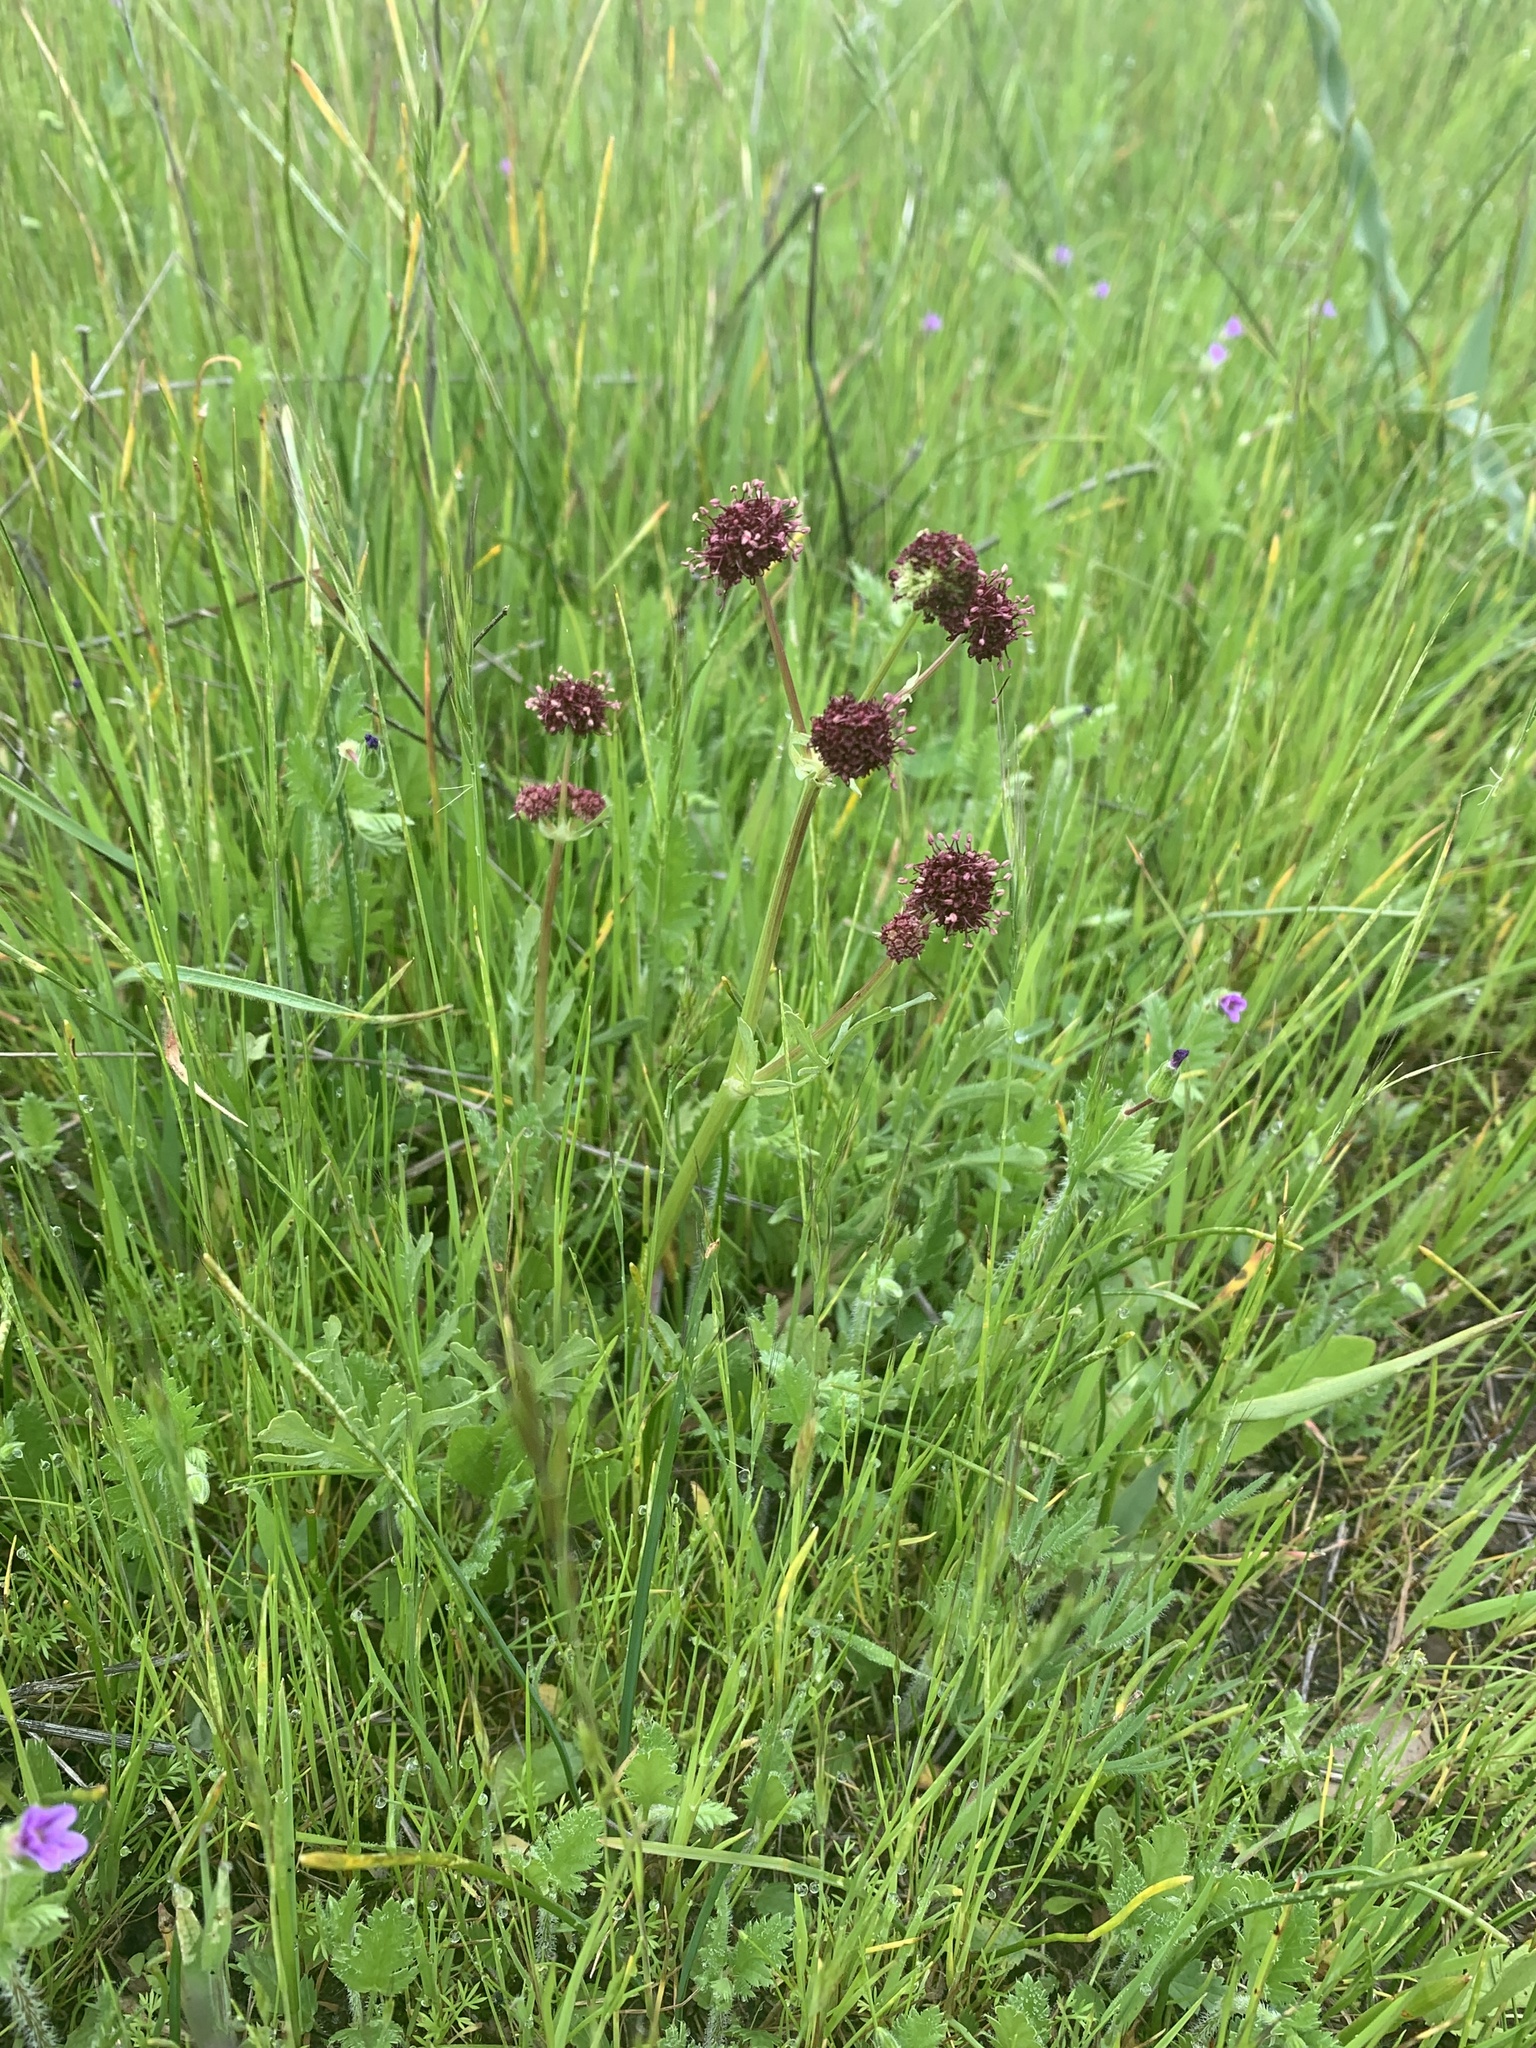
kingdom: Plantae
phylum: Tracheophyta
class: Magnoliopsida
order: Apiales
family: Apiaceae
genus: Sanicula
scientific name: Sanicula bipinnatifida
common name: Shoe-buttons
